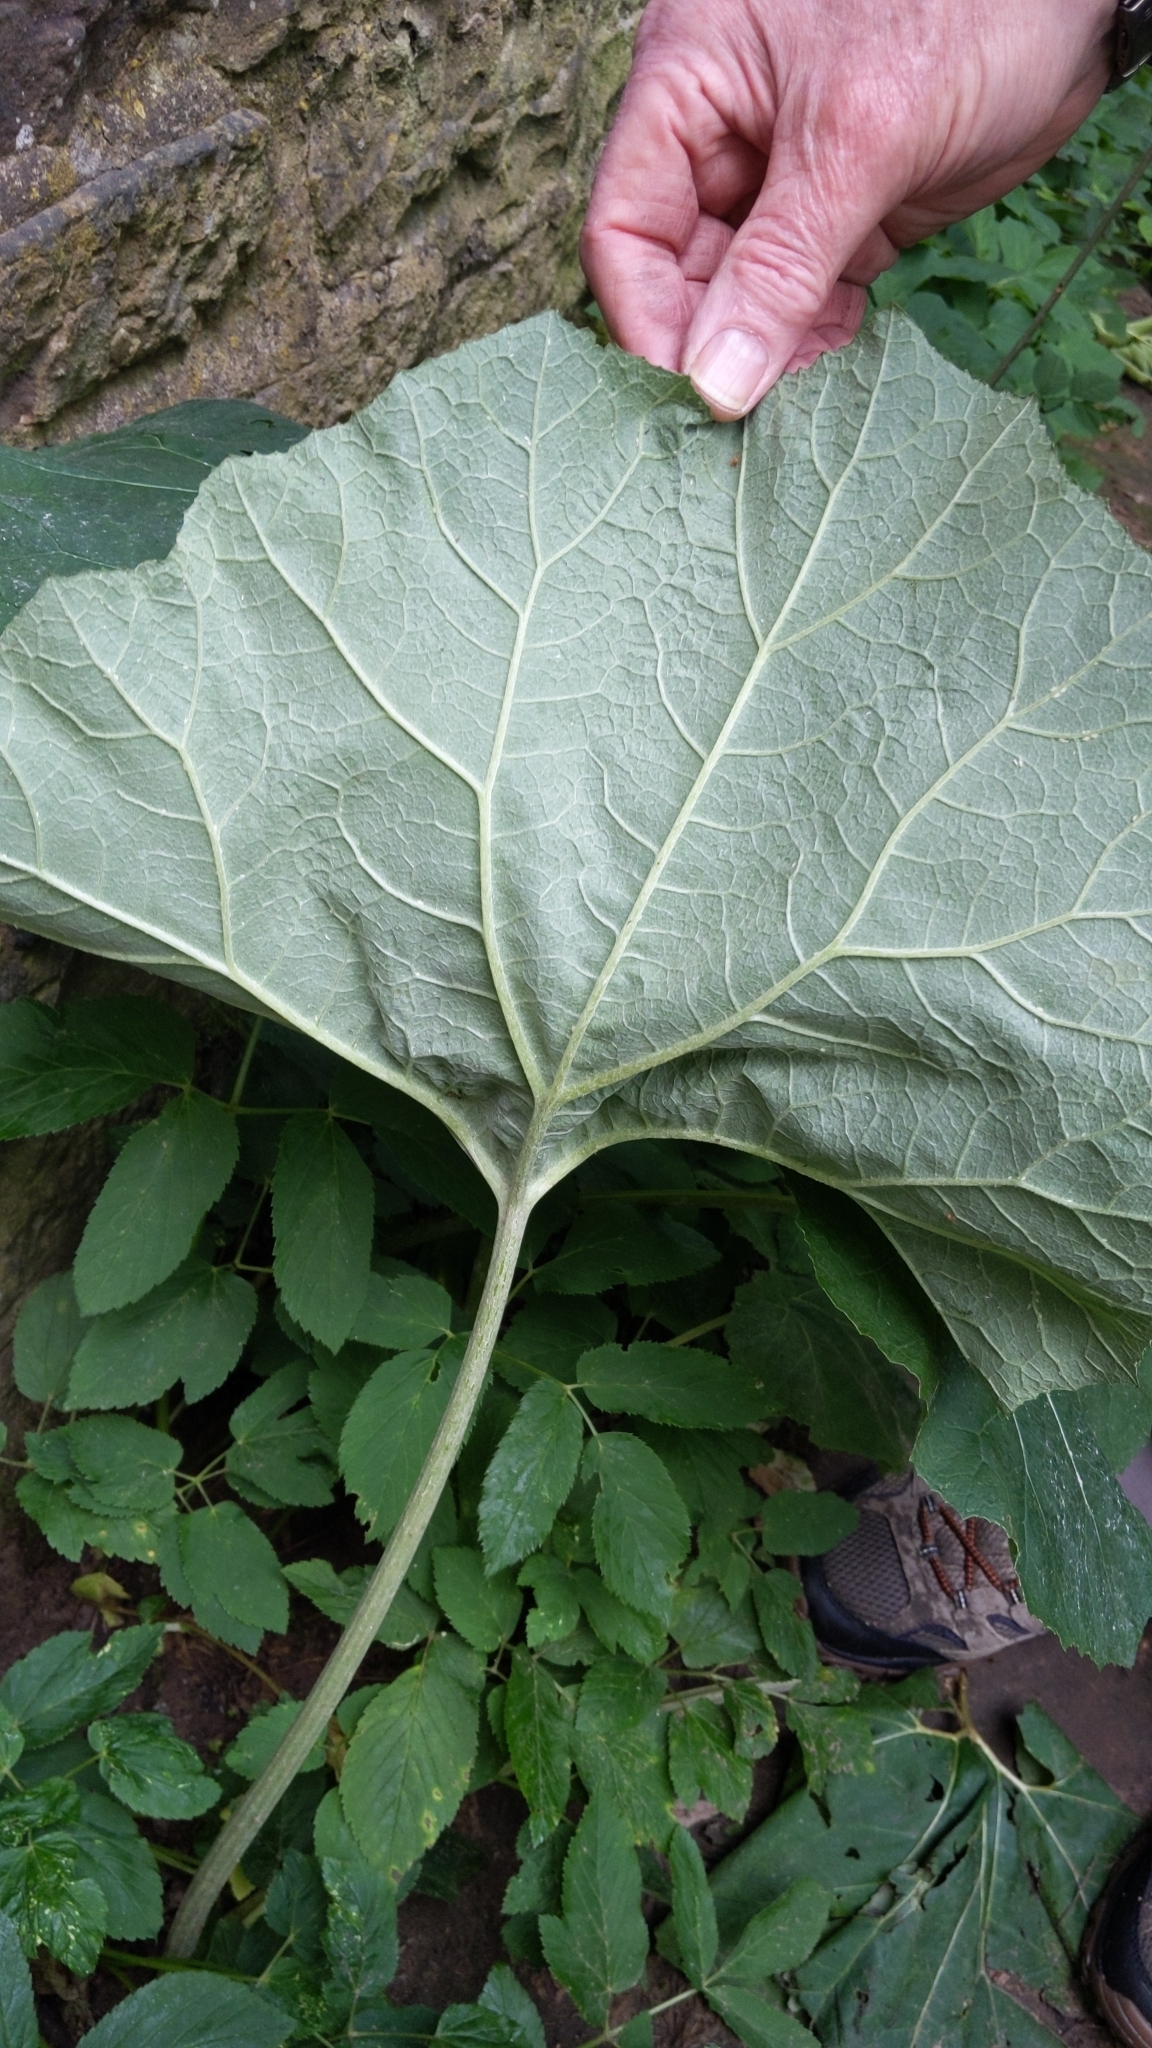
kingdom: Plantae
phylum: Tracheophyta
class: Magnoliopsida
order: Asterales
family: Asteraceae
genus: Petasites
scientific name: Petasites hybridus
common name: Butterbur
